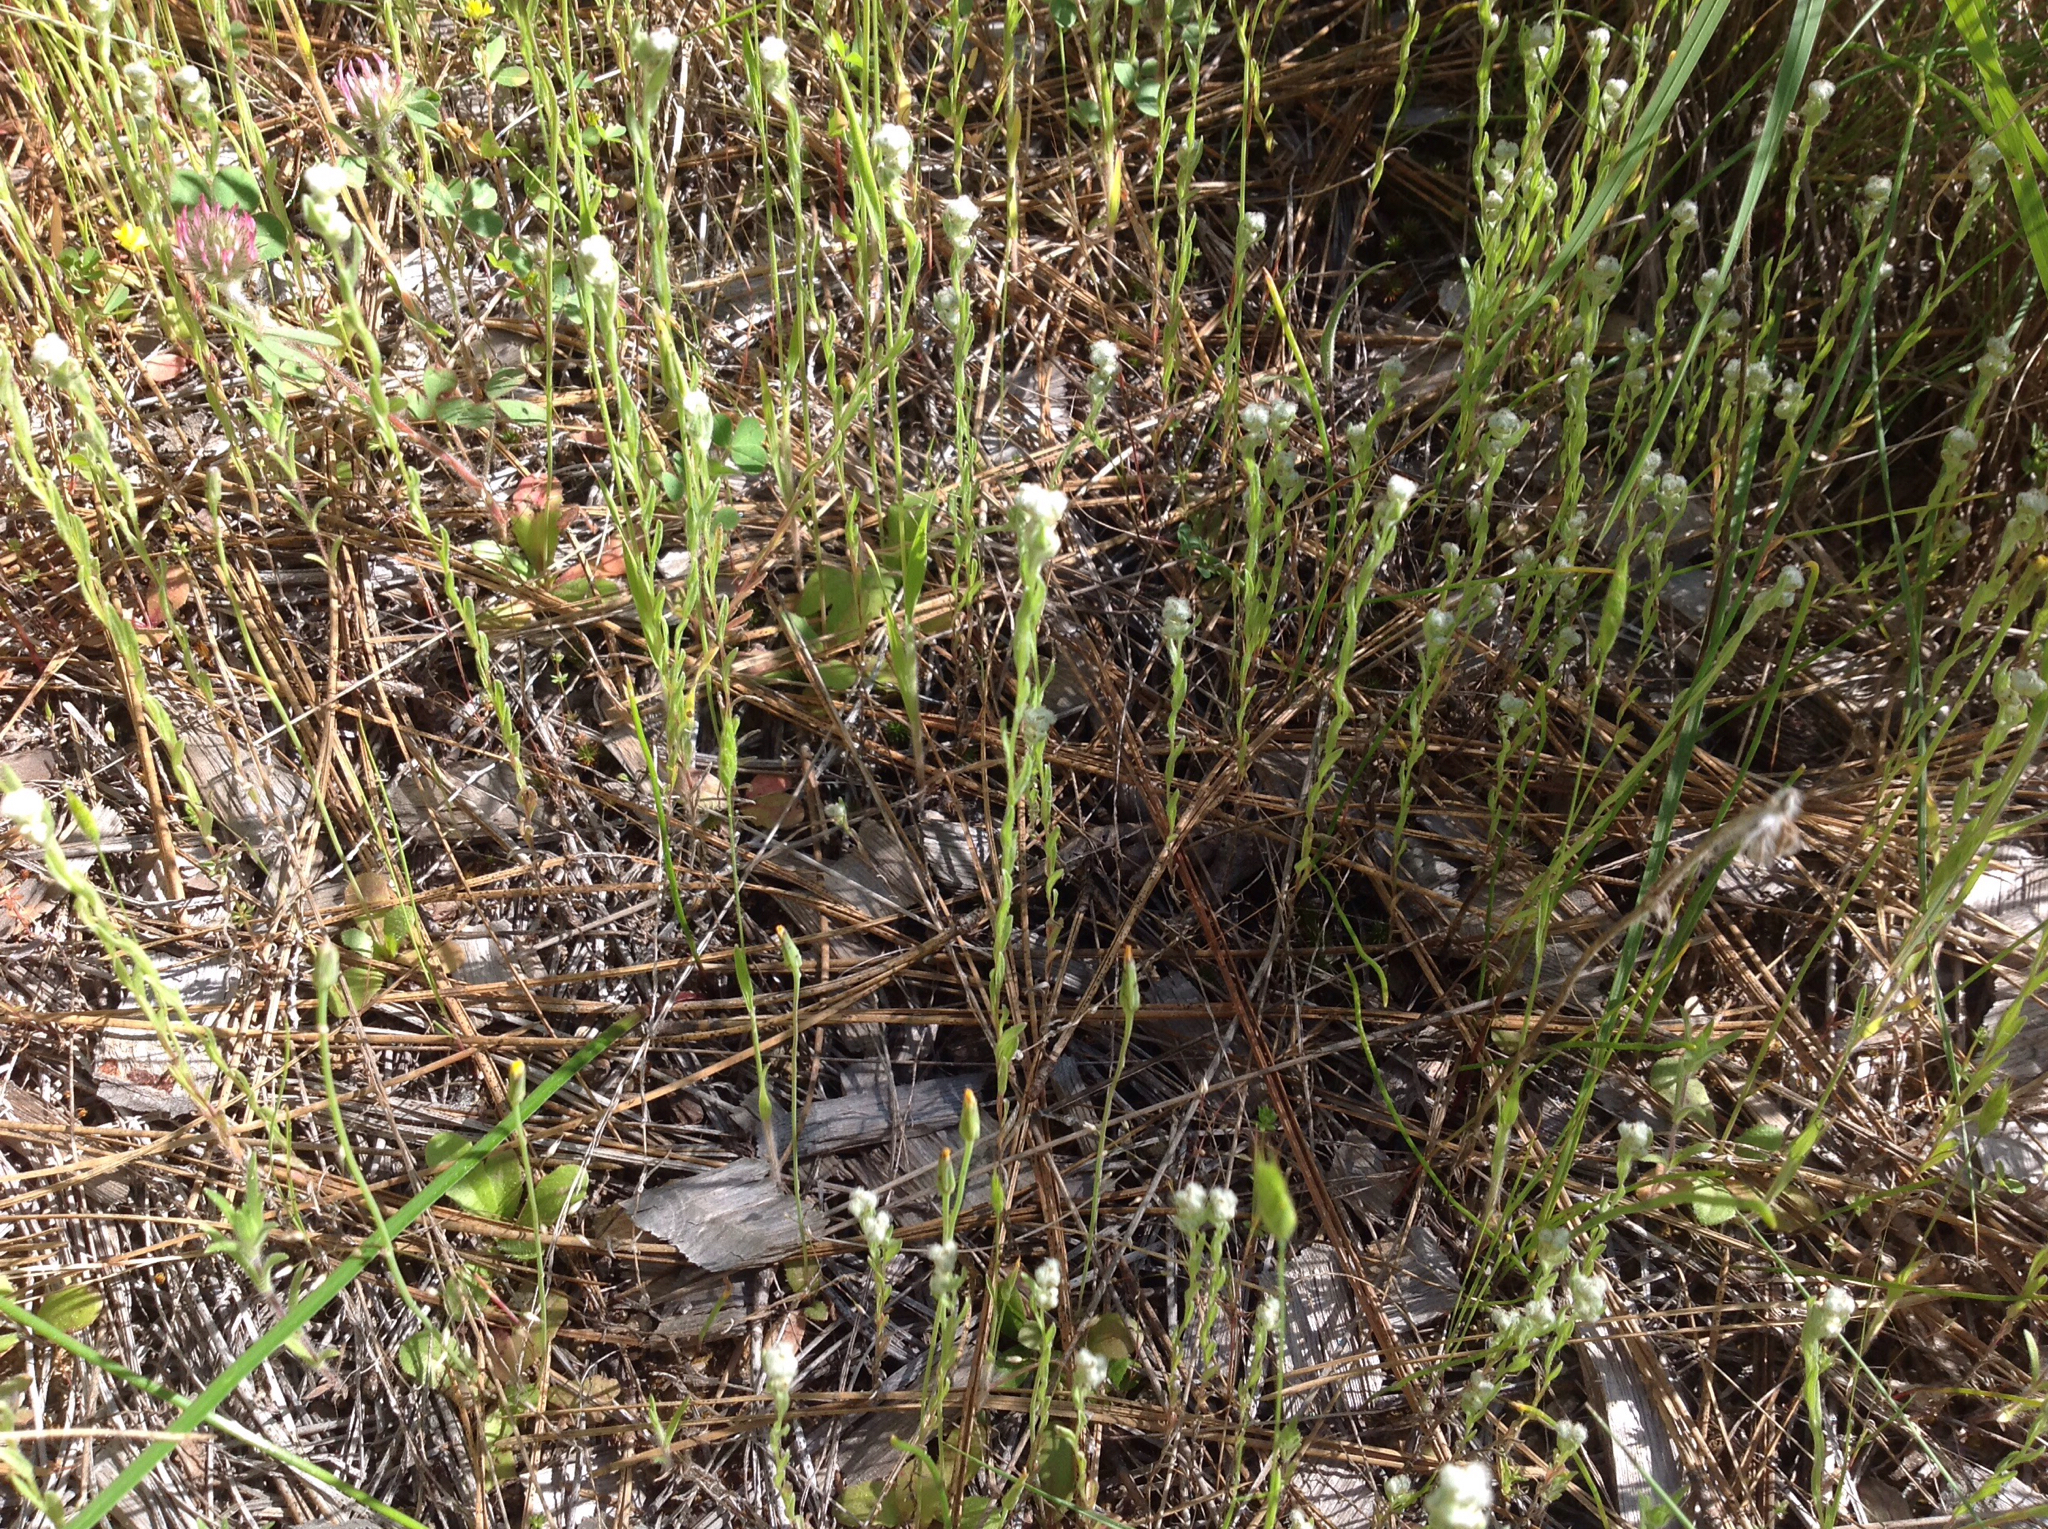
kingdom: Plantae
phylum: Tracheophyta
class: Magnoliopsida
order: Asterales
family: Asteraceae
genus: Bombycilaena
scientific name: Bombycilaena californica
